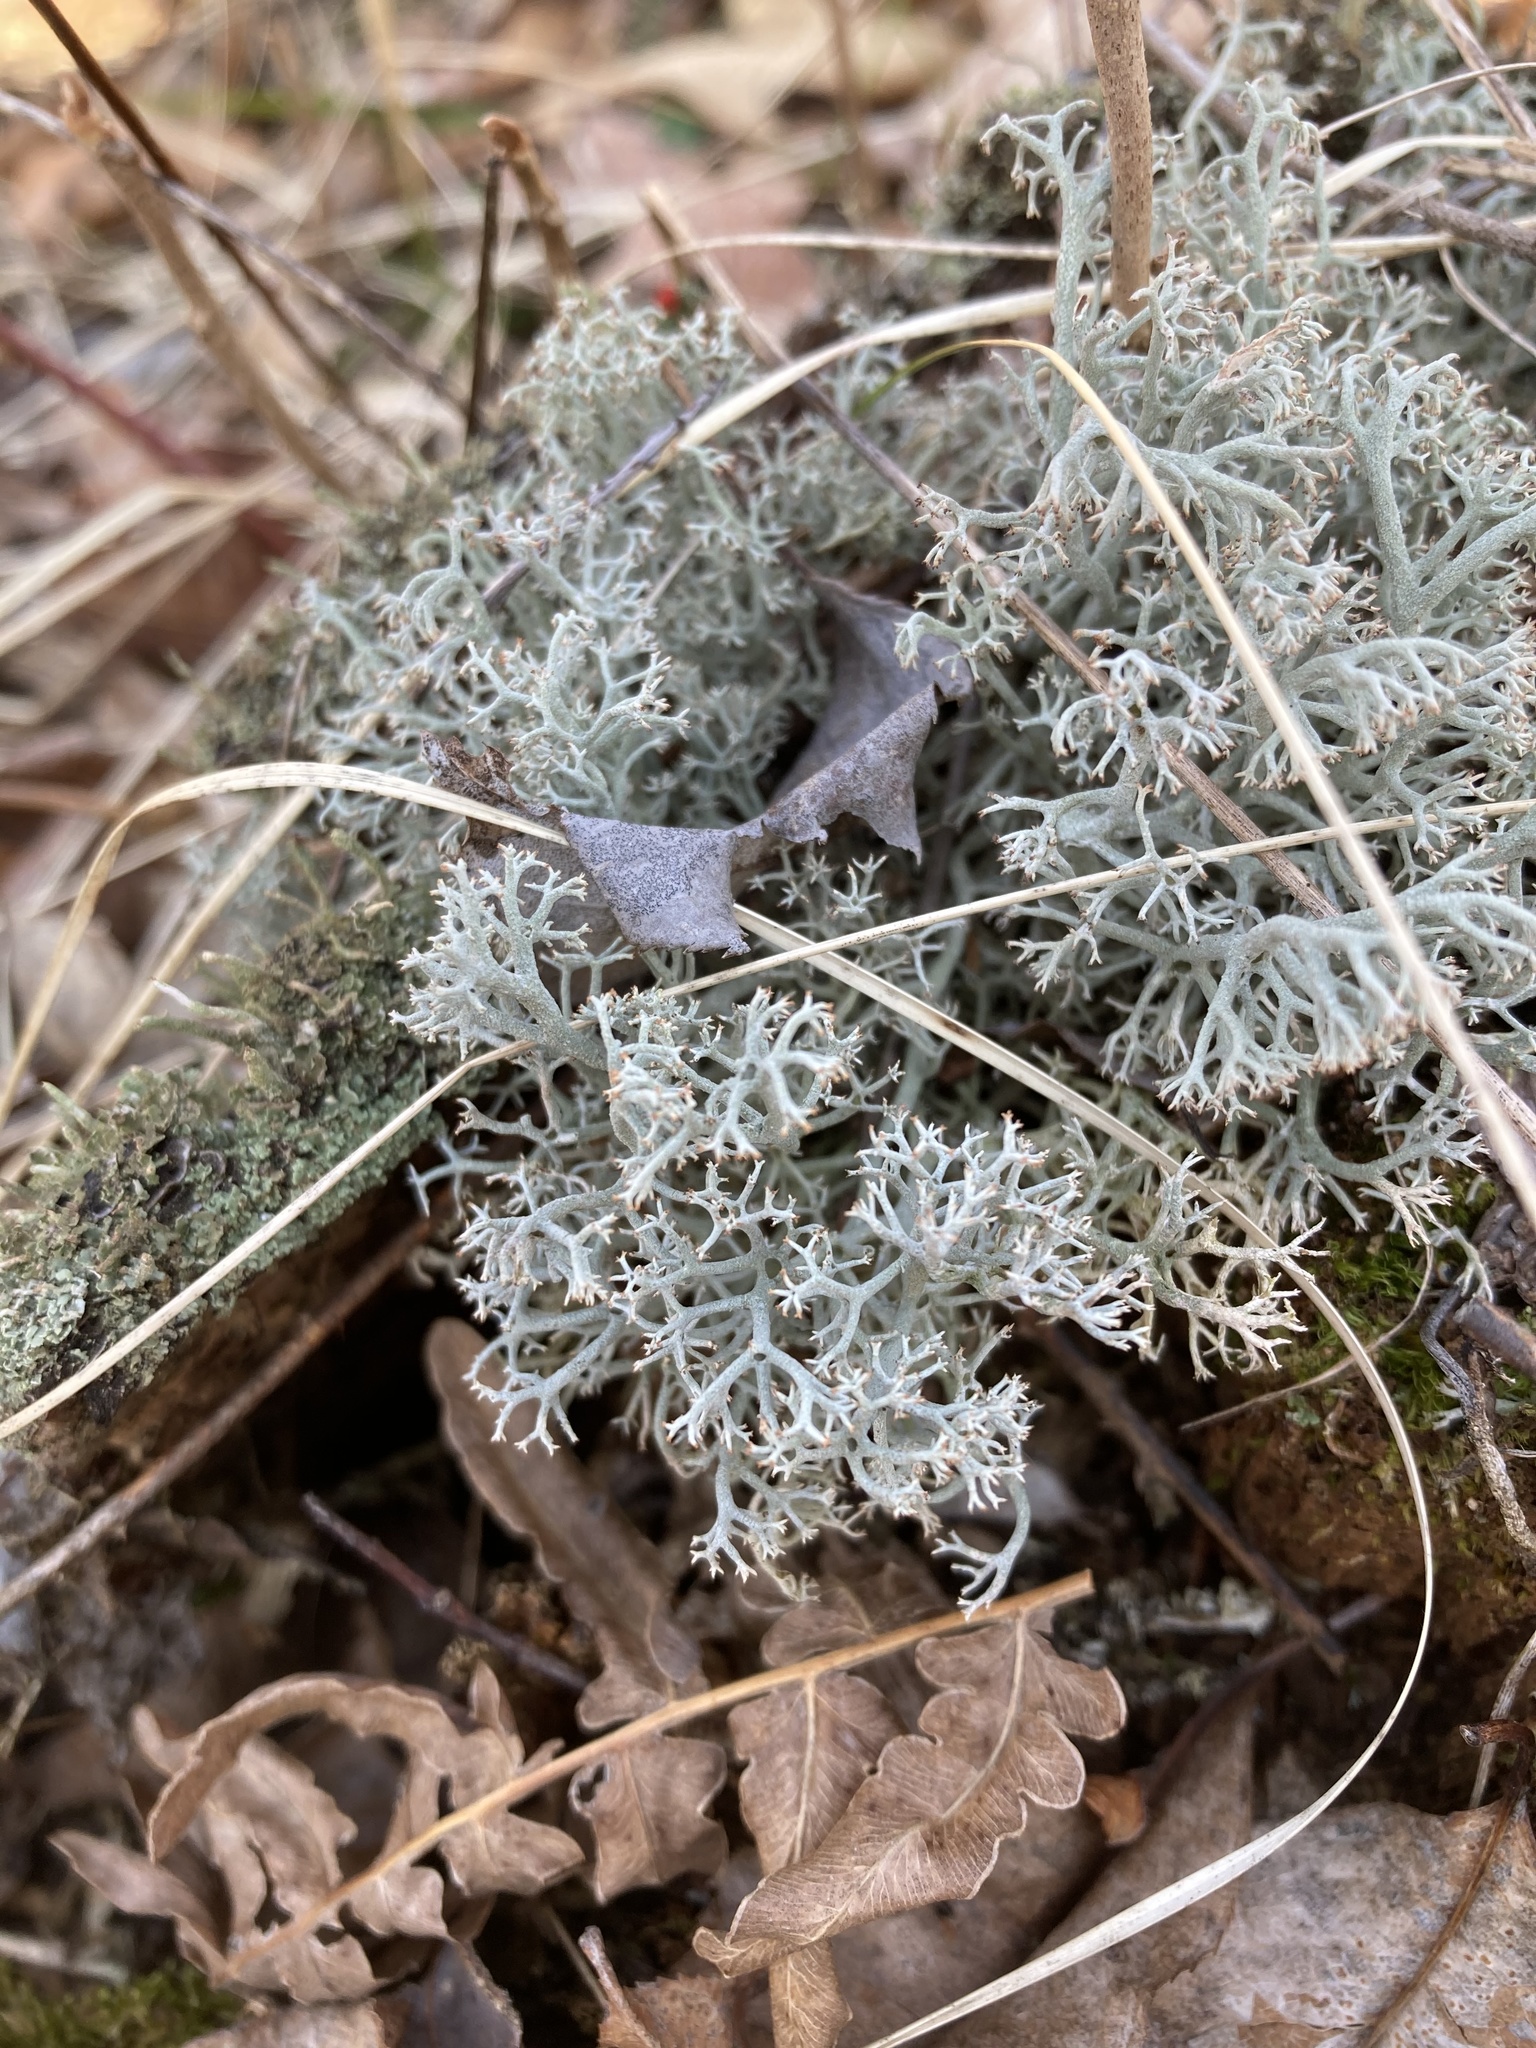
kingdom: Fungi
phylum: Ascomycota
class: Lecanoromycetes
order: Lecanorales
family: Cladoniaceae
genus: Cladonia
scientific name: Cladonia rangiferina
